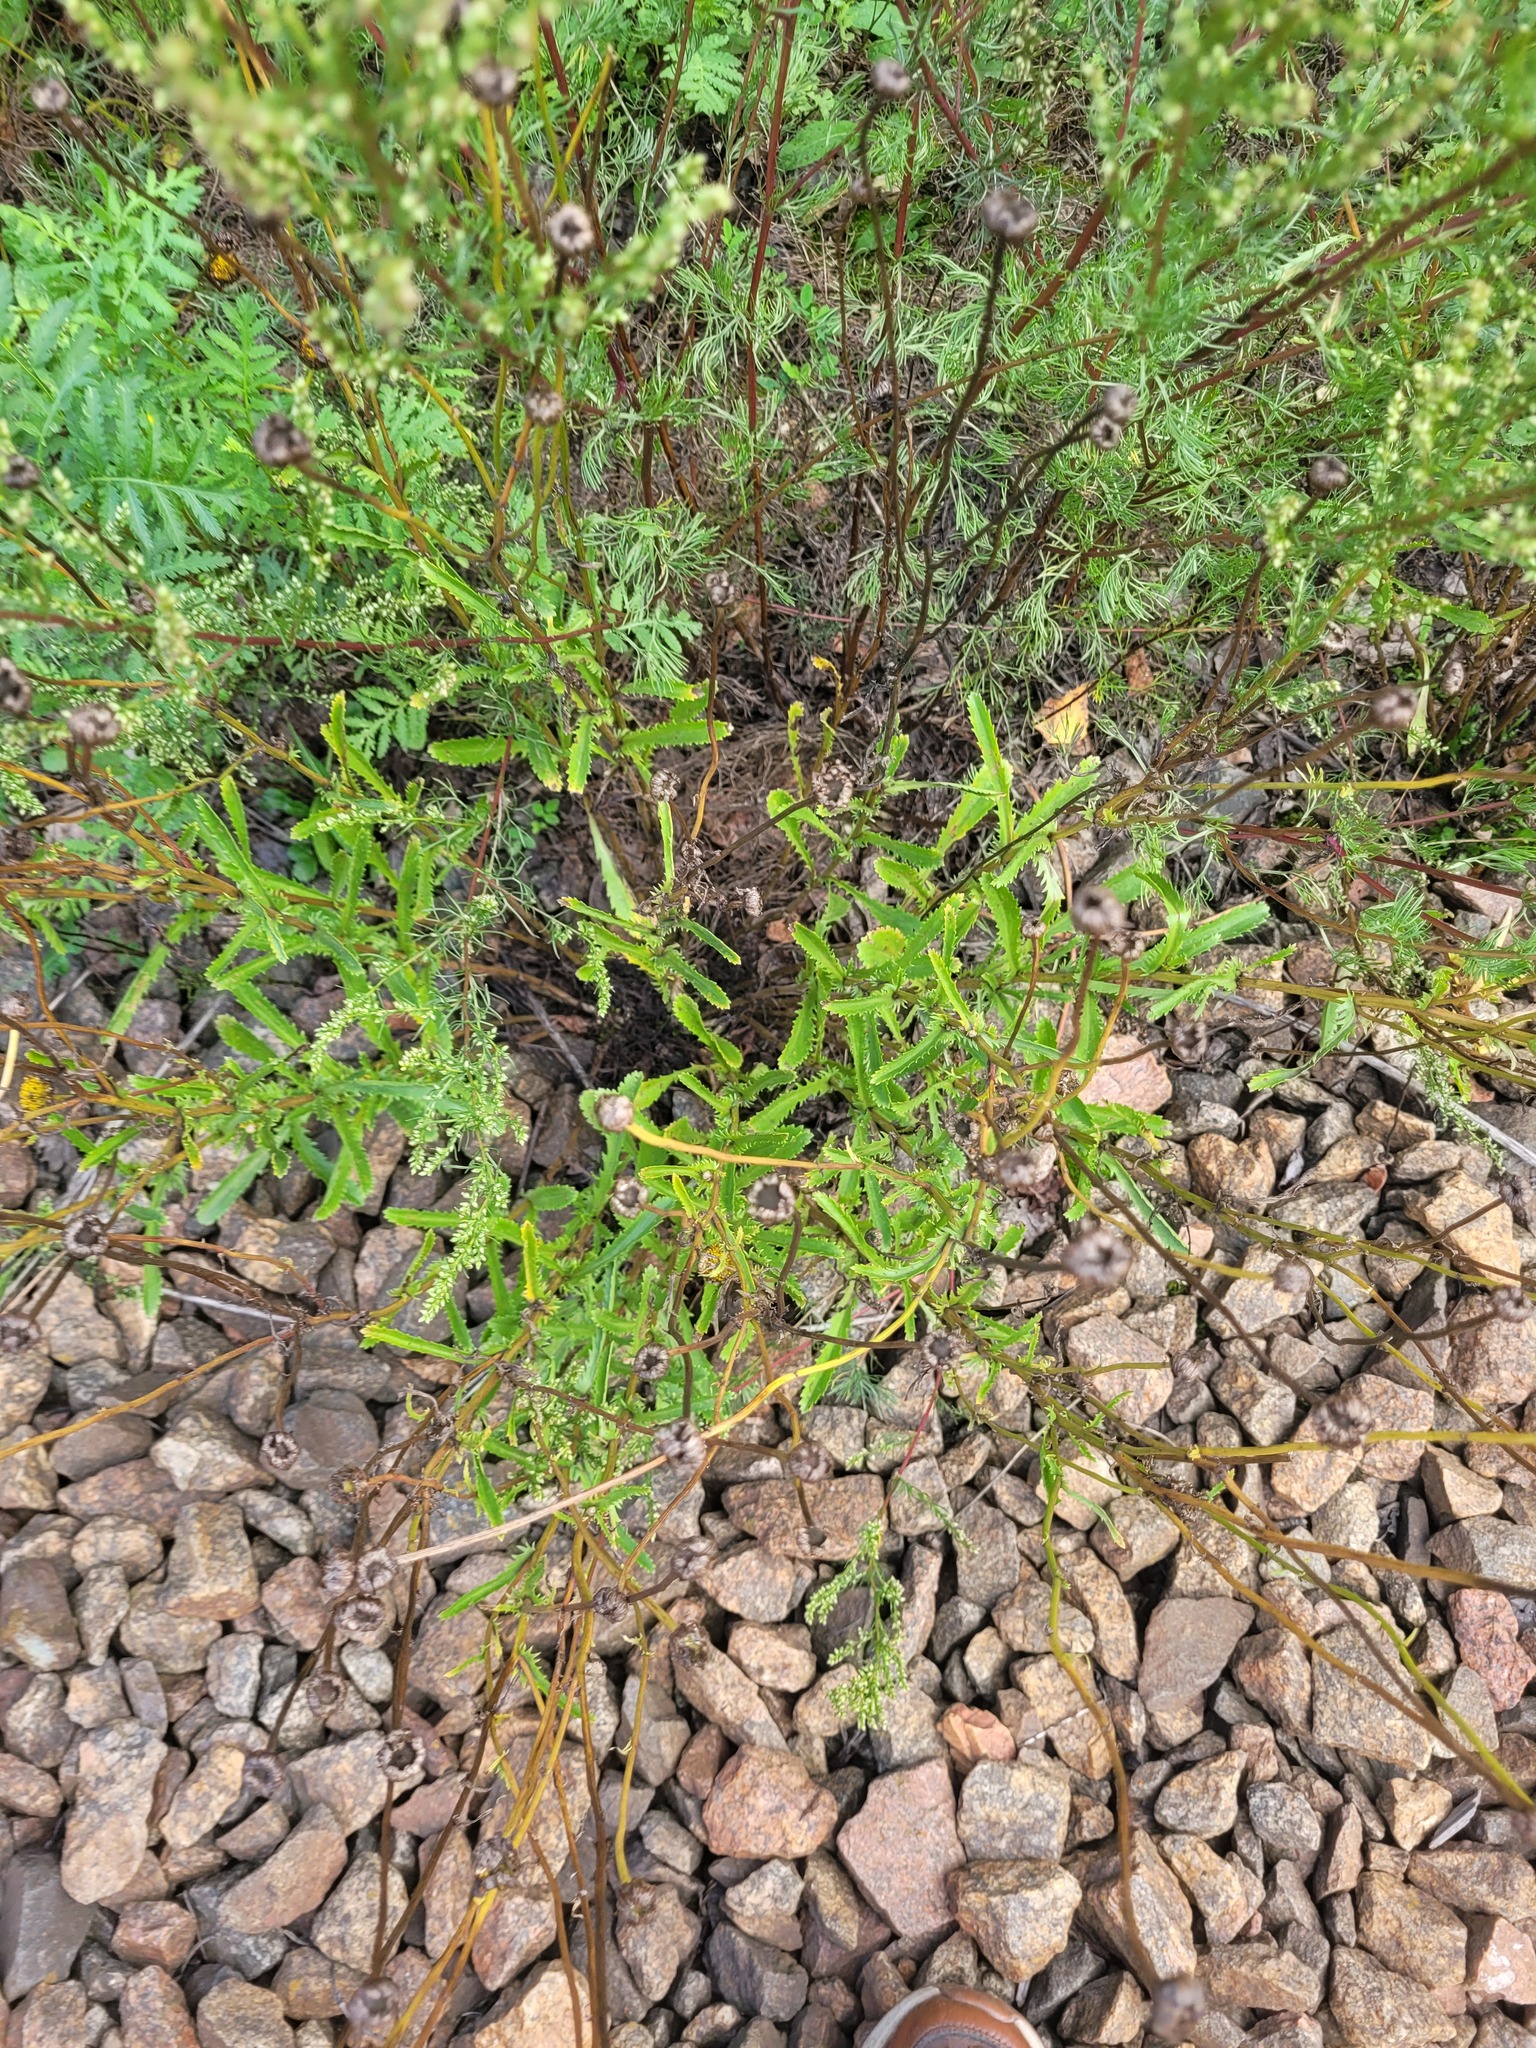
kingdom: Plantae
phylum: Tracheophyta
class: Magnoliopsida
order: Asterales
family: Asteraceae
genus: Leucanthemum
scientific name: Leucanthemum vulgare
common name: Oxeye daisy
